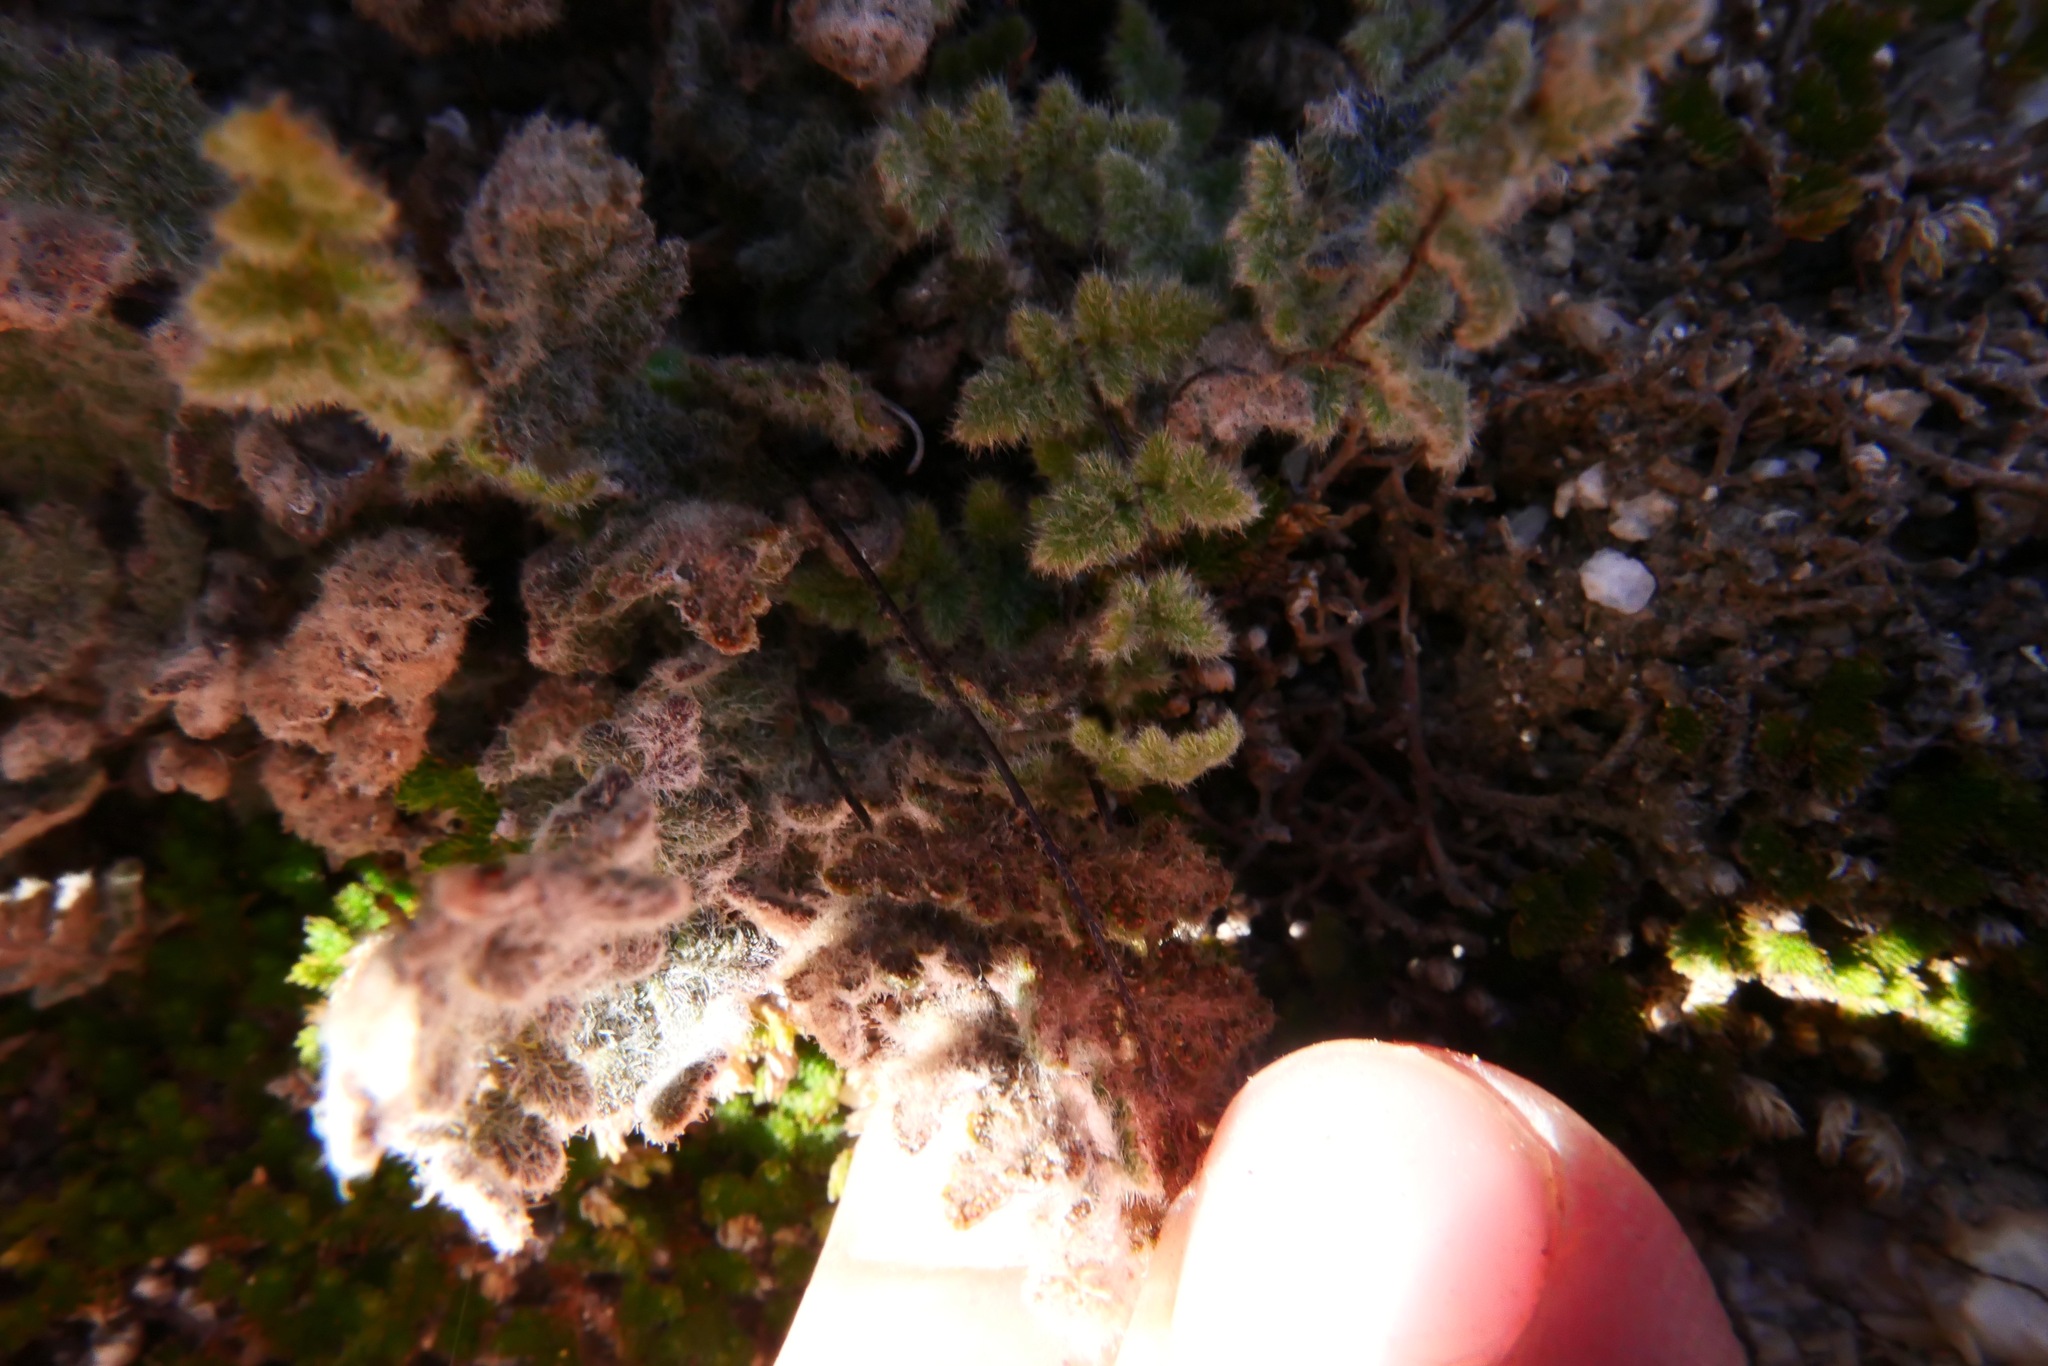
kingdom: Plantae
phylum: Tracheophyta
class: Polypodiopsida
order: Polypodiales
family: Pteridaceae
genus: Myriopteris
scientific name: Myriopteris parryi
